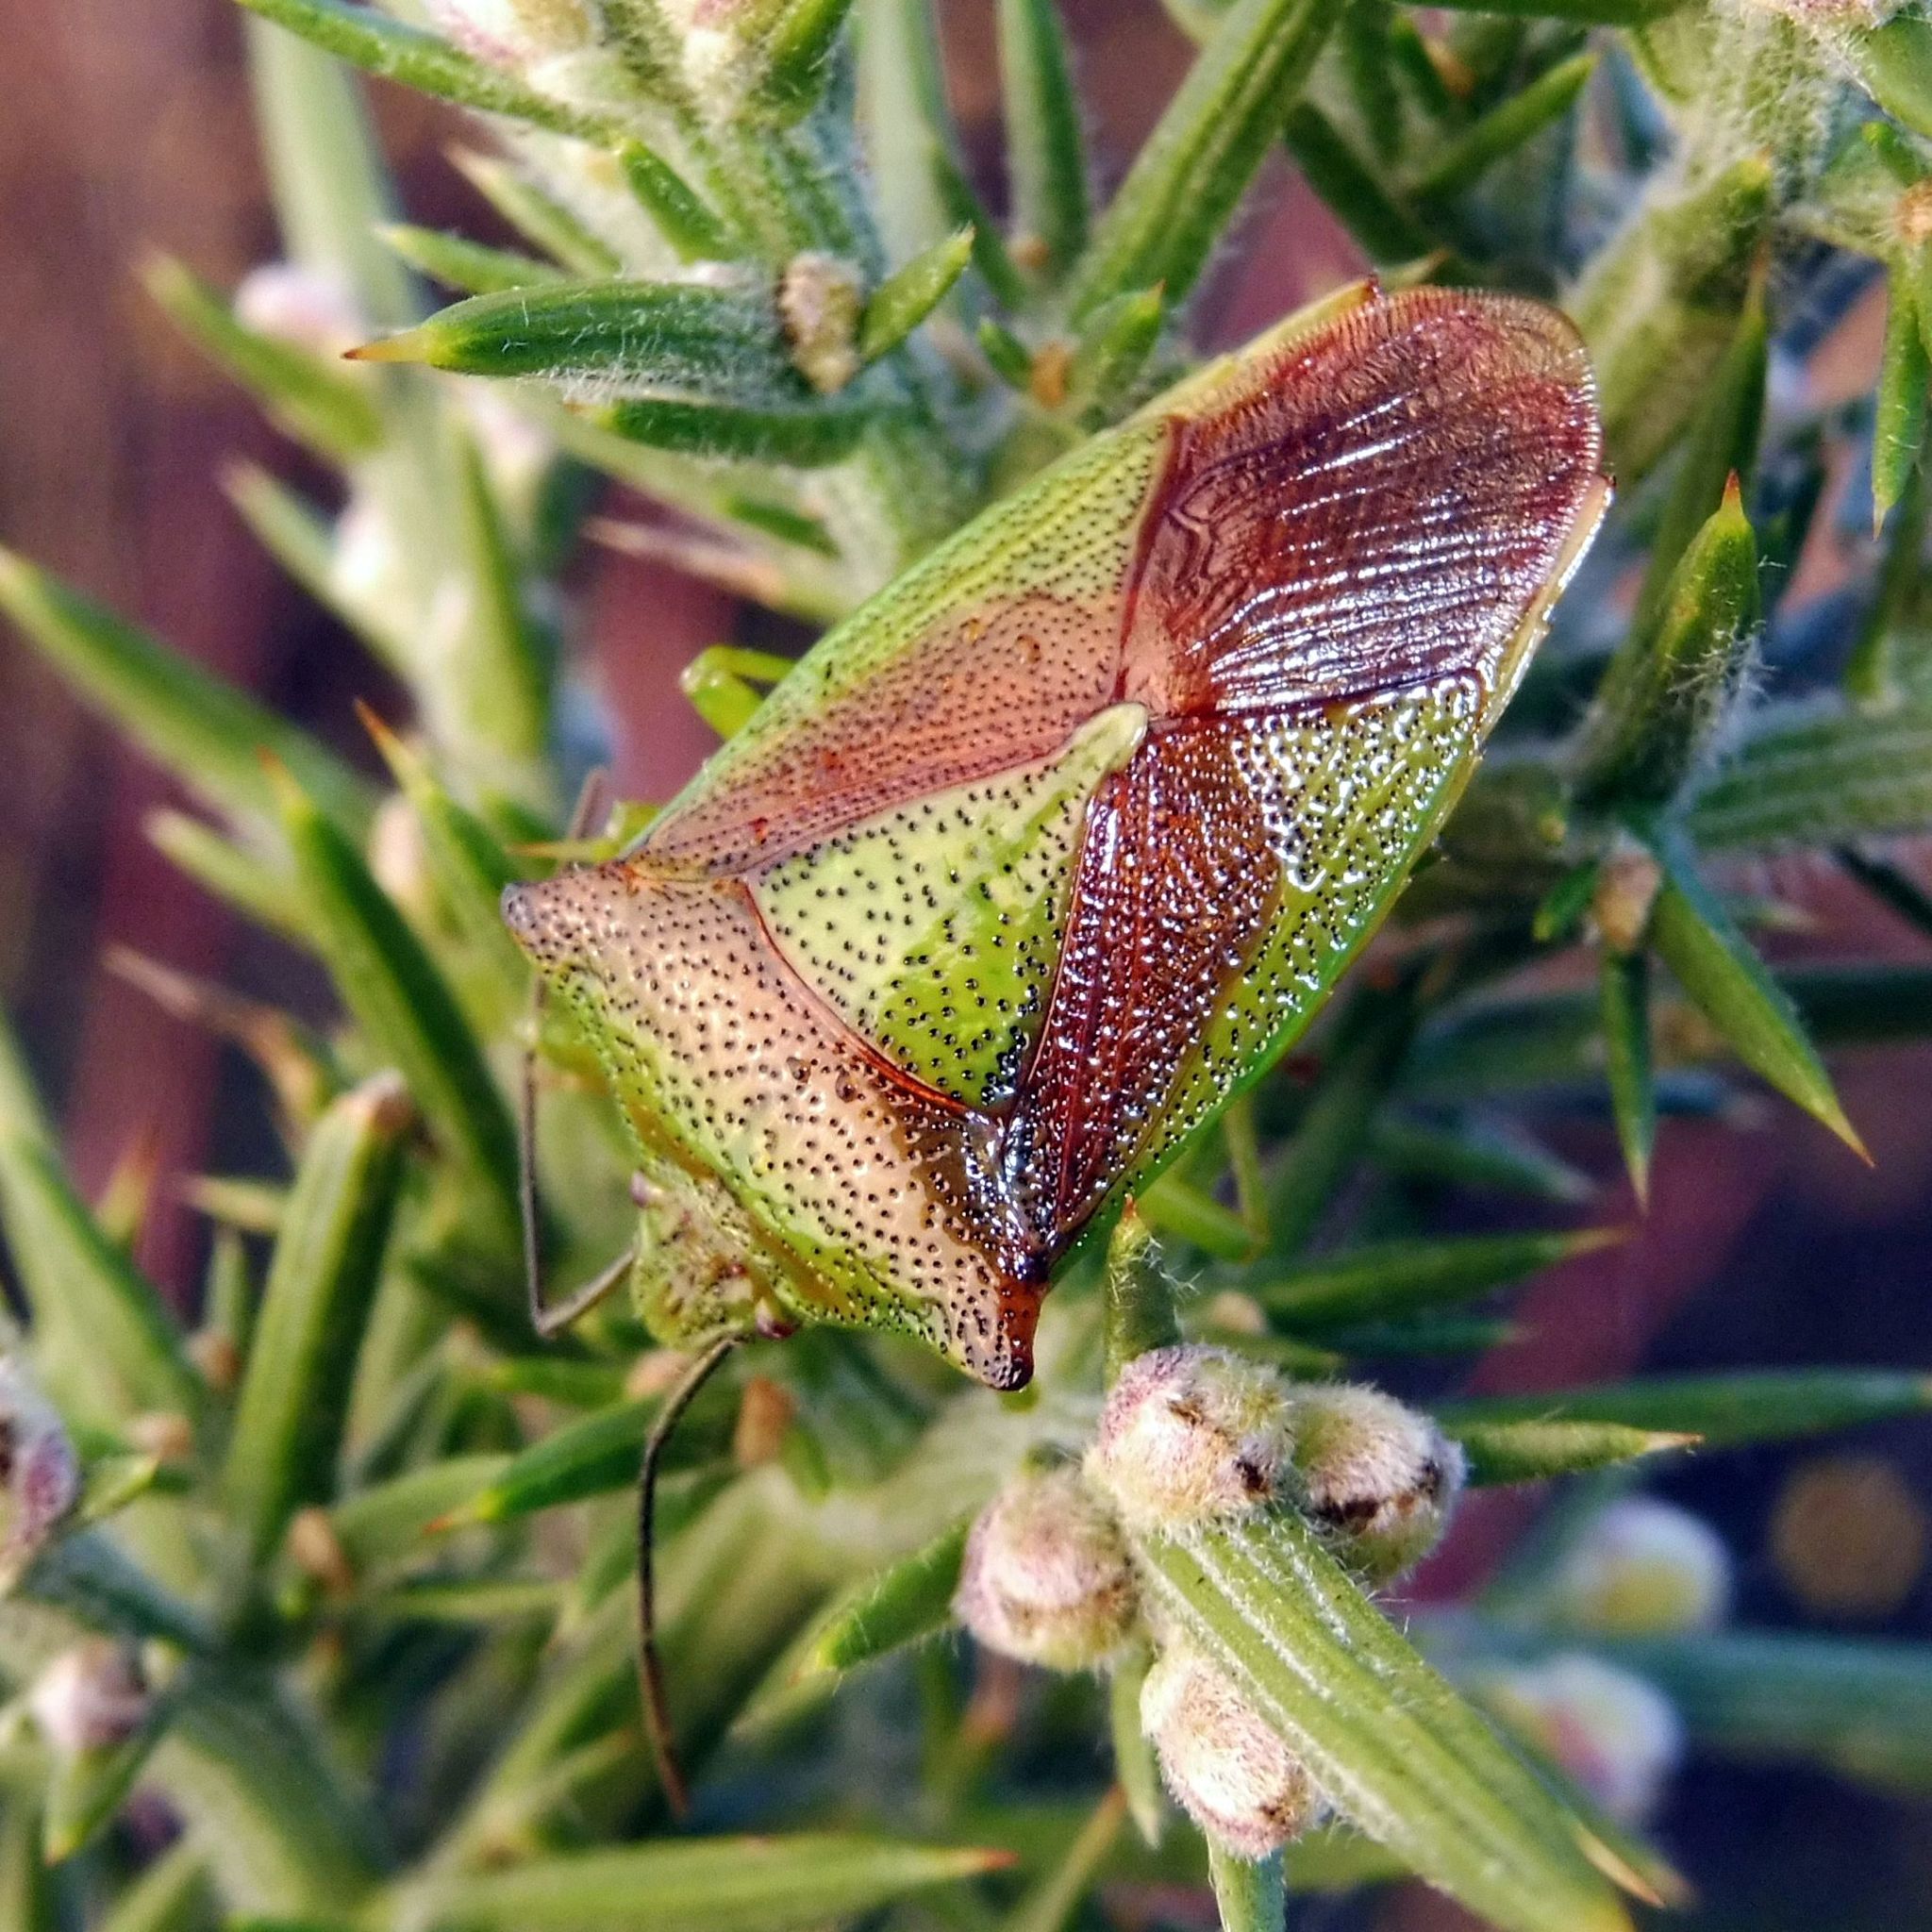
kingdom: Animalia
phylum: Arthropoda
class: Insecta
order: Hemiptera
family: Acanthosomatidae
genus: Acanthosoma
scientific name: Acanthosoma haemorrhoidale
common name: Hawthorn shieldbug
